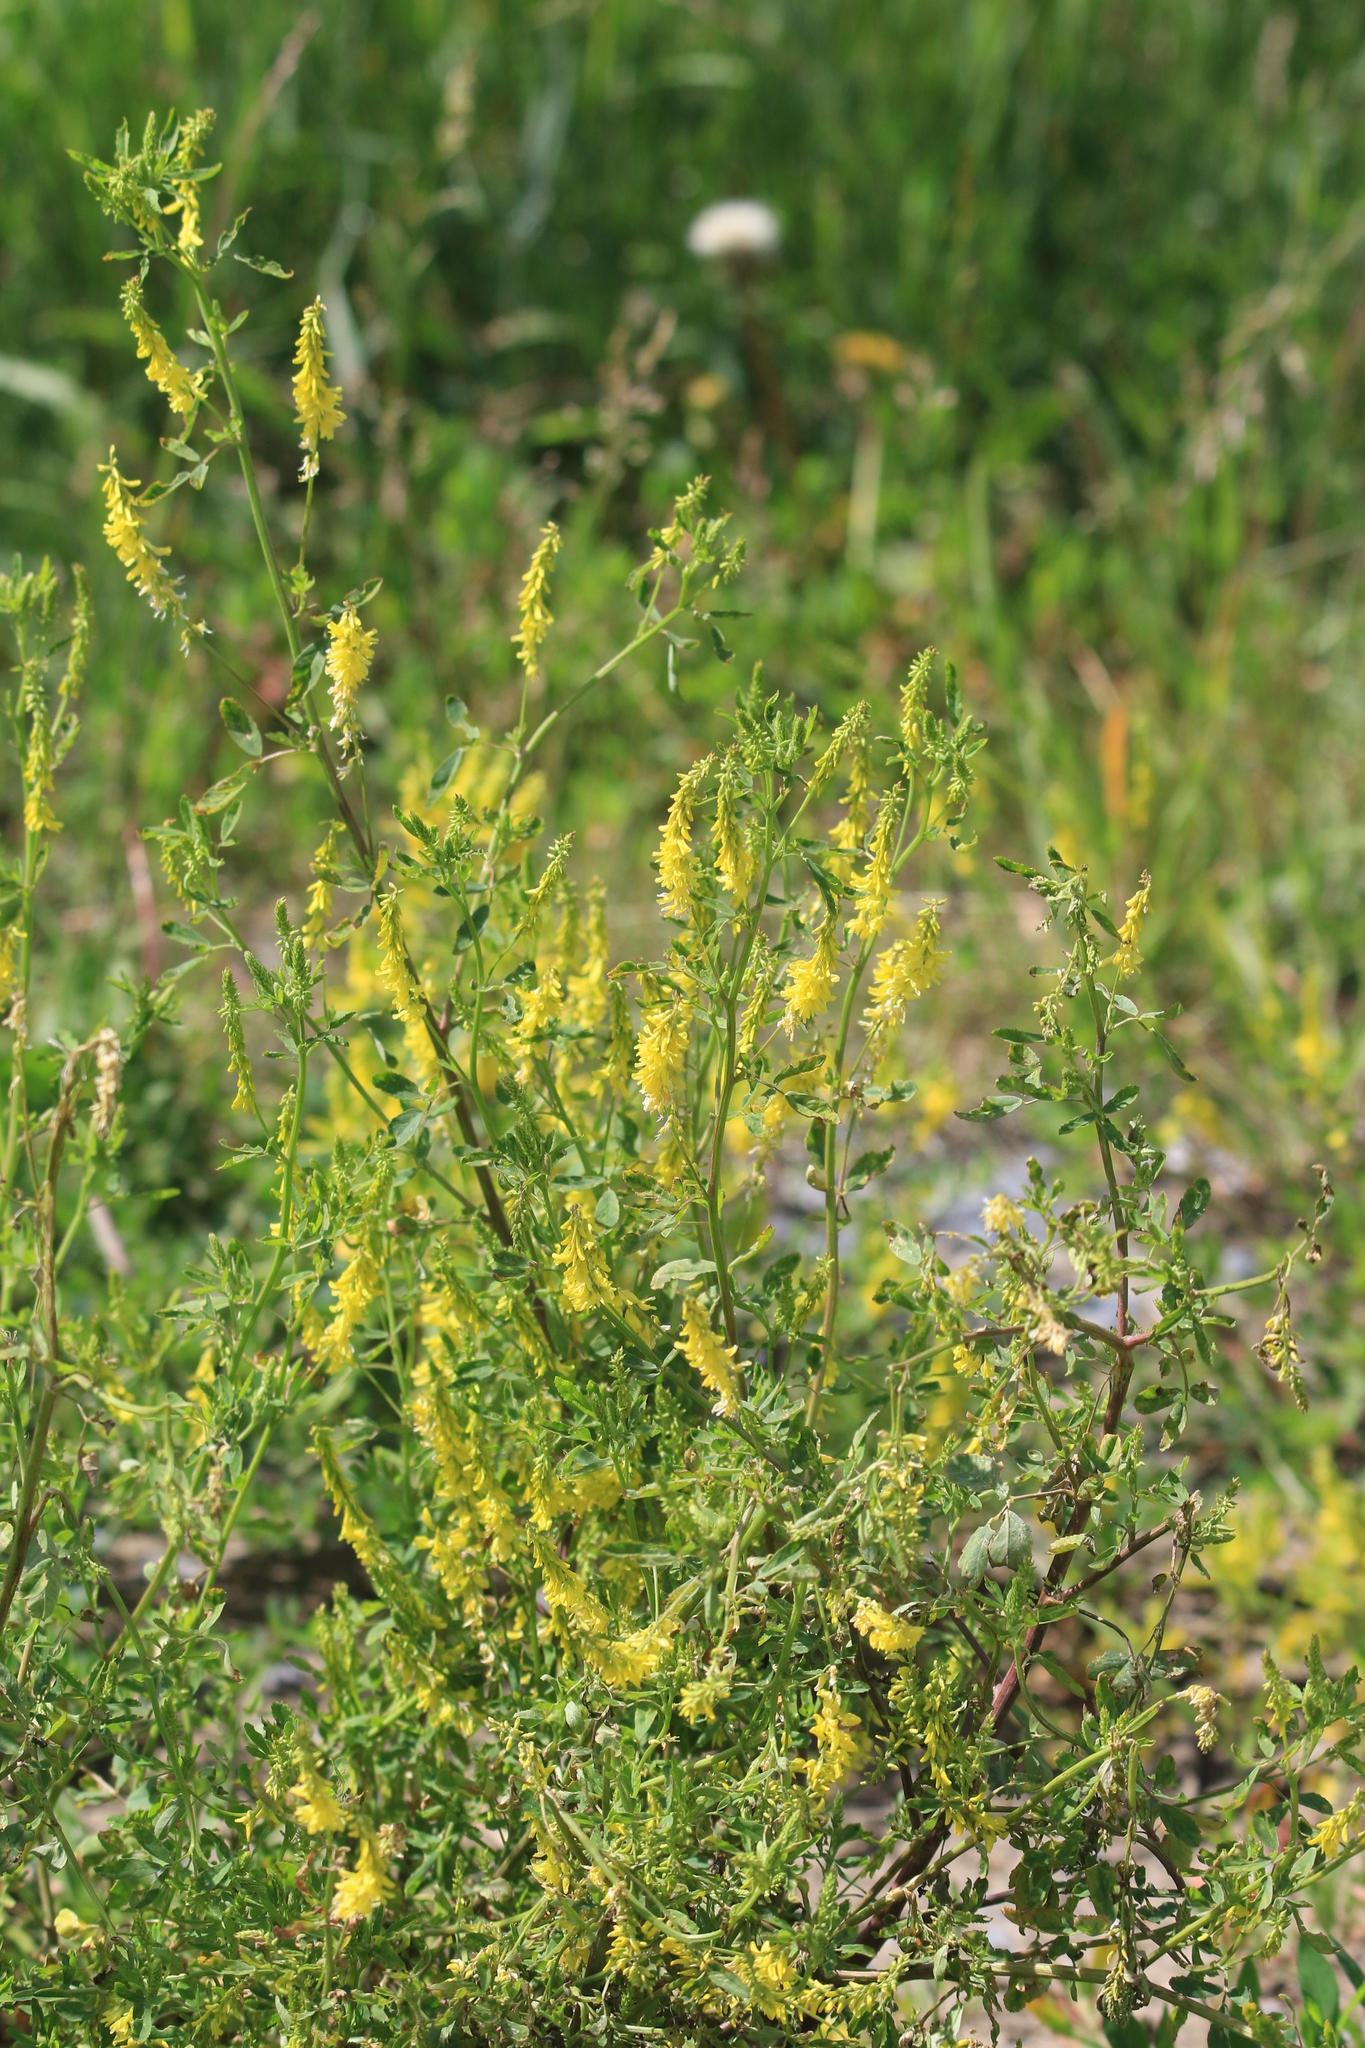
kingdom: Plantae
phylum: Tracheophyta
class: Magnoliopsida
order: Fabales
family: Fabaceae
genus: Melilotus
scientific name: Melilotus officinalis
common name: Sweetclover
